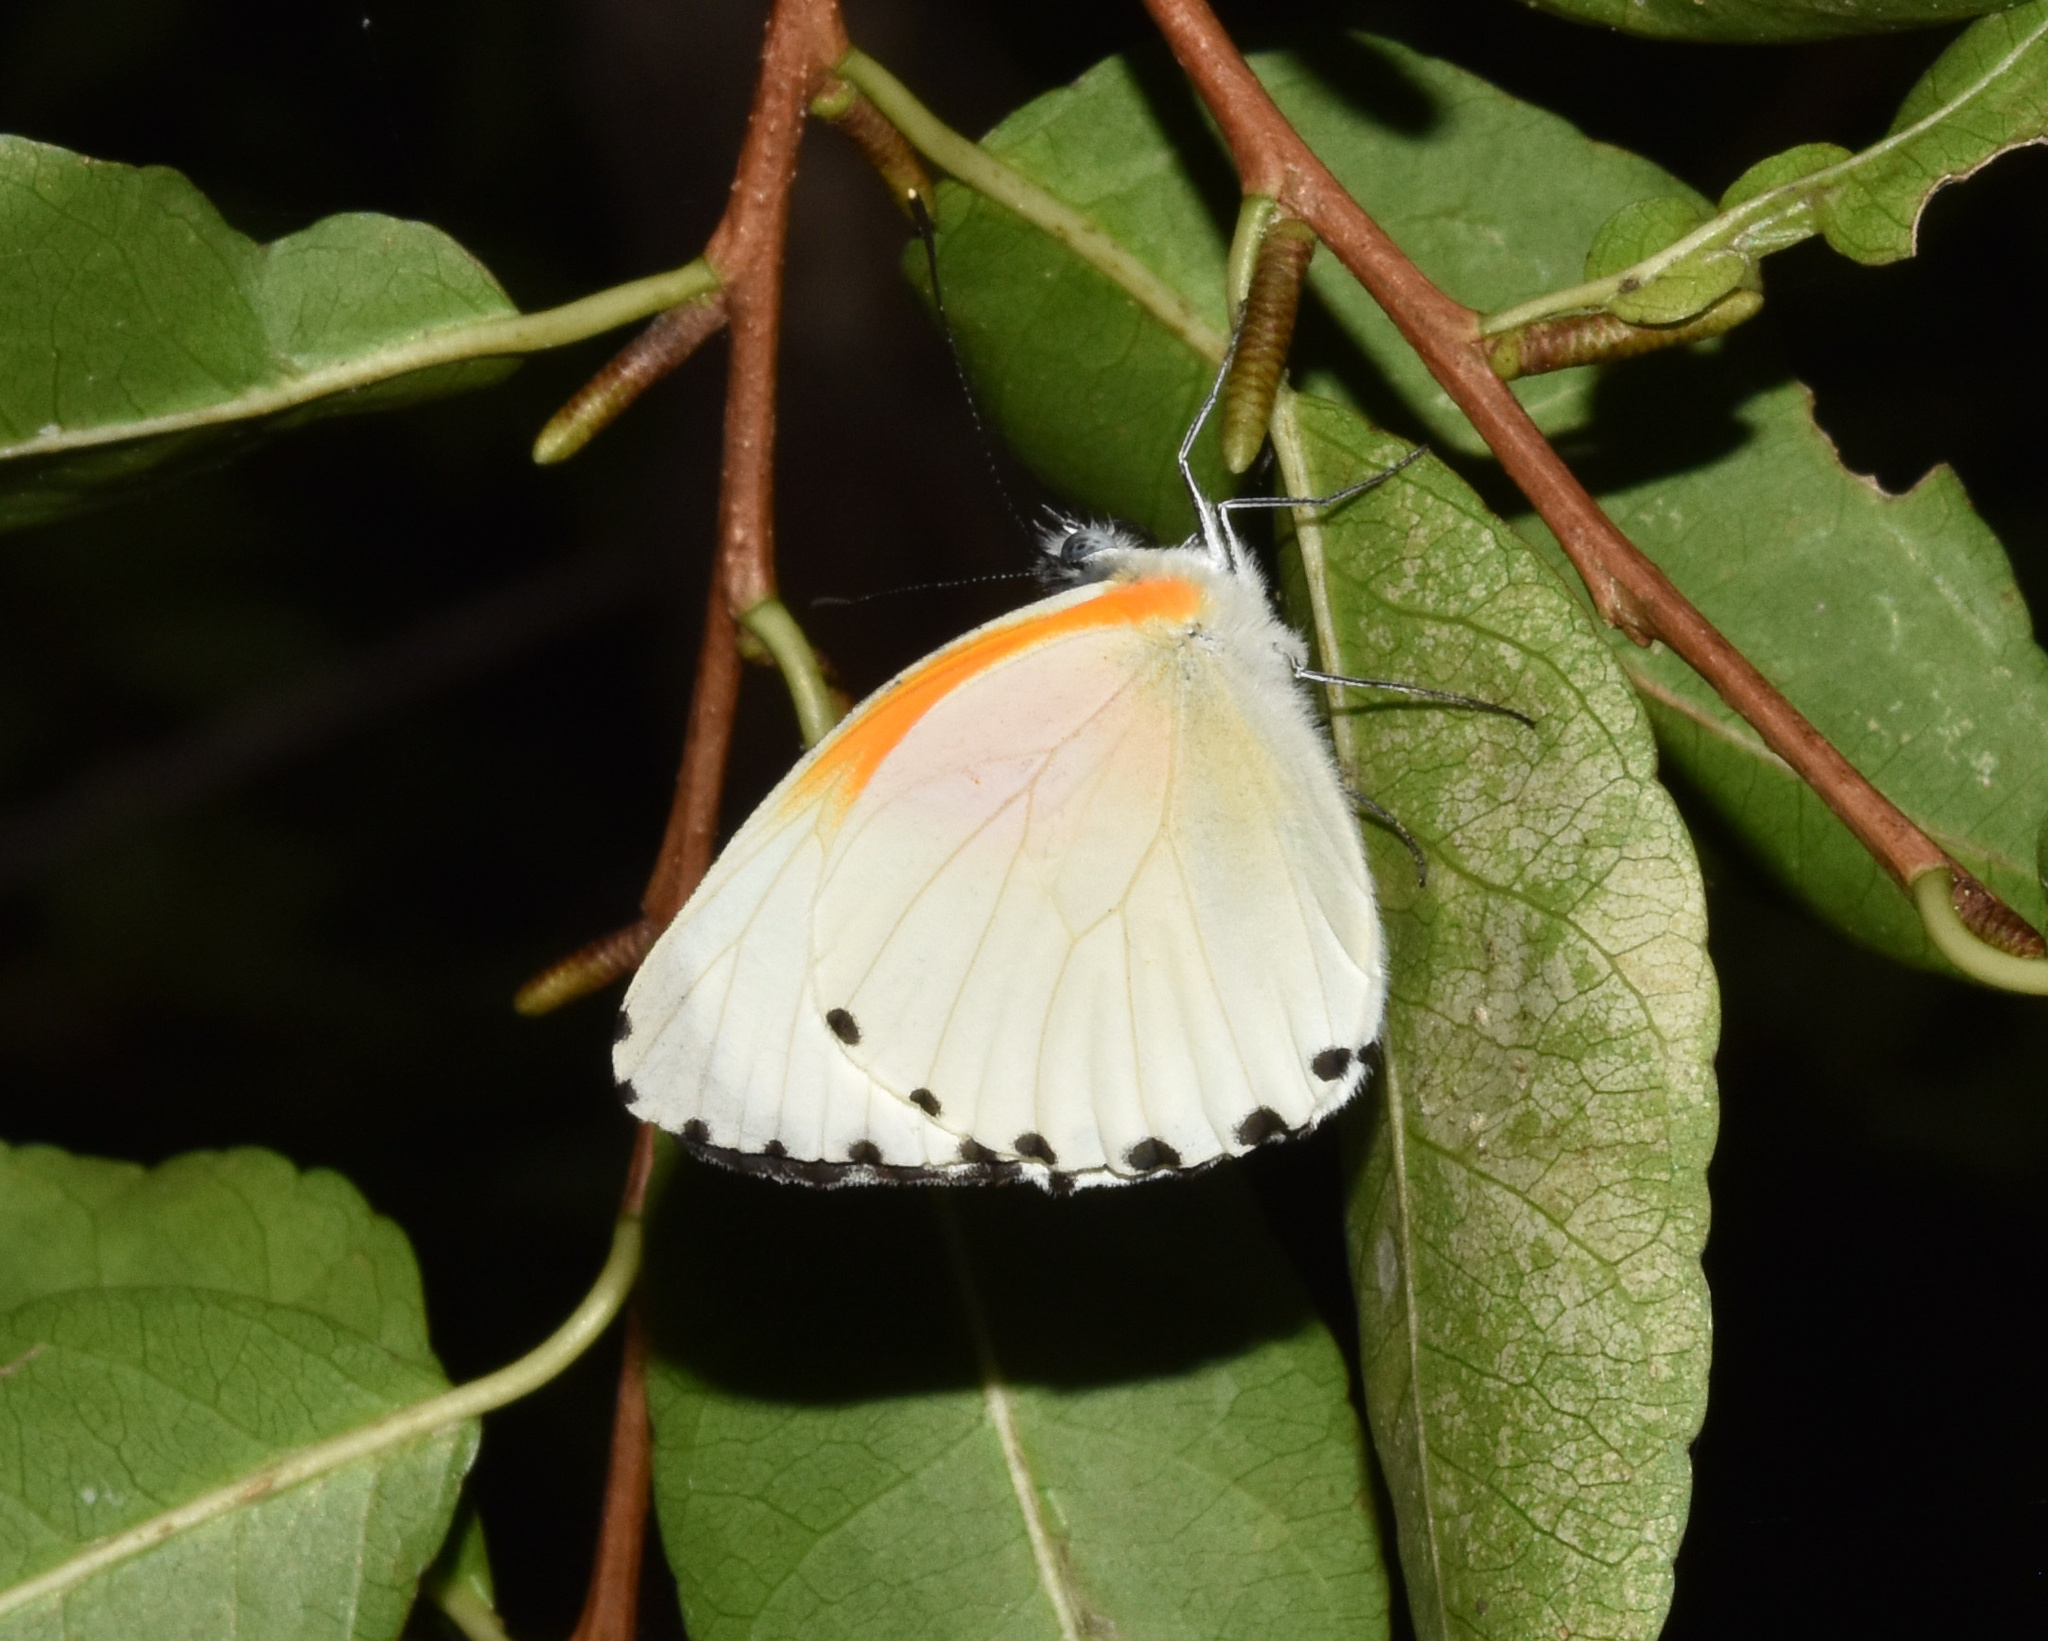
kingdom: Animalia
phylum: Arthropoda
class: Insecta
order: Lepidoptera
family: Pieridae
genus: Mylothris
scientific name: Mylothris rueppellii
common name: Twin dotted border
